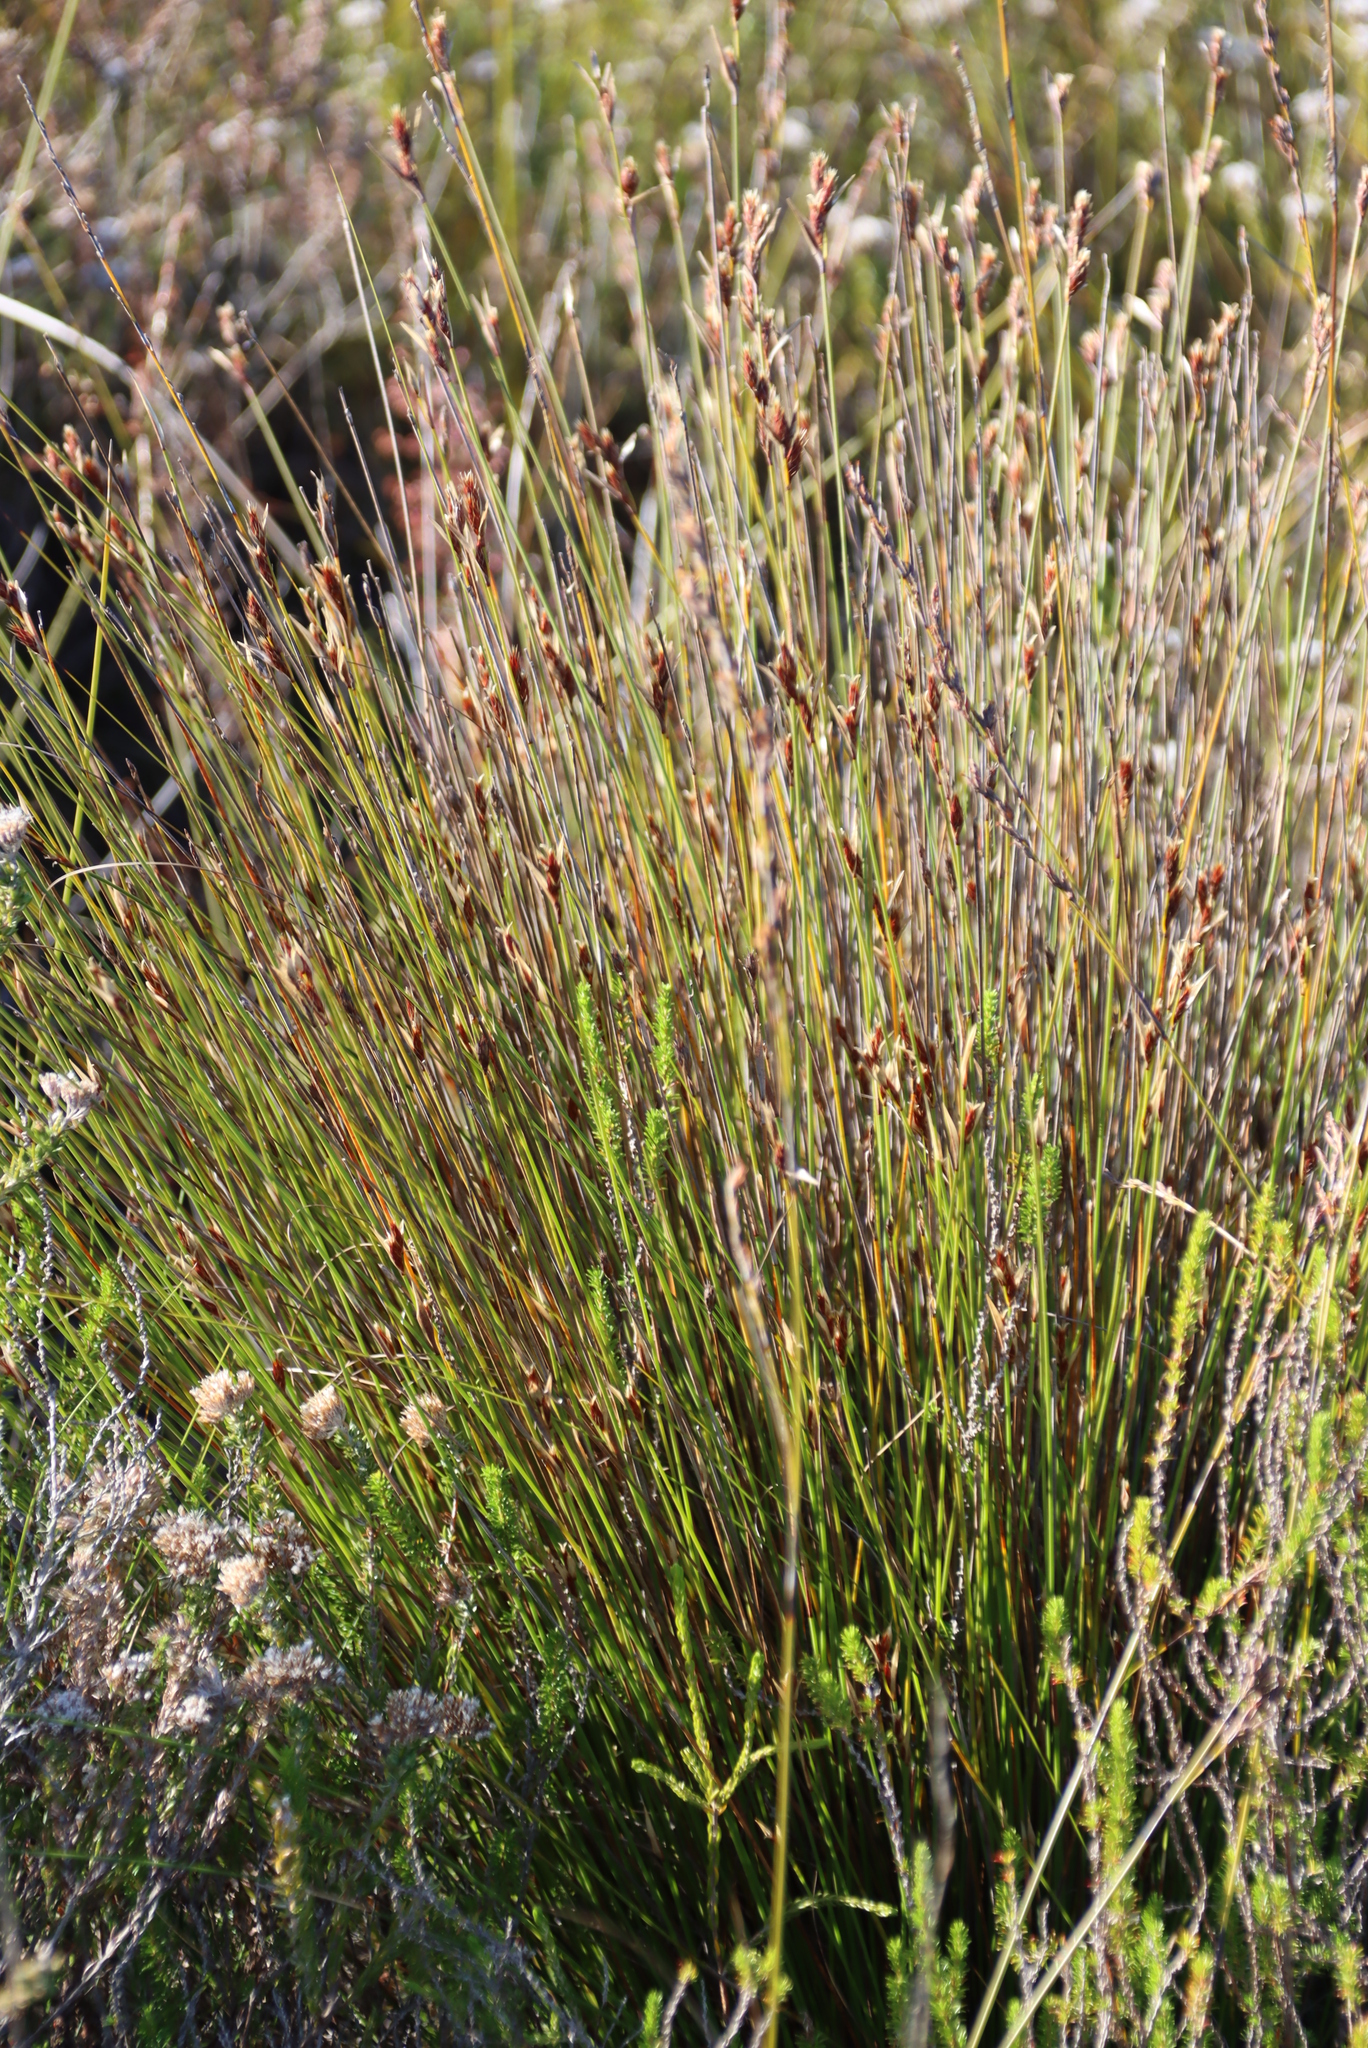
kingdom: Plantae
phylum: Tracheophyta
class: Liliopsida
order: Poales
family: Restionaceae
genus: Hypodiscus
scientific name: Hypodiscus aristatus
